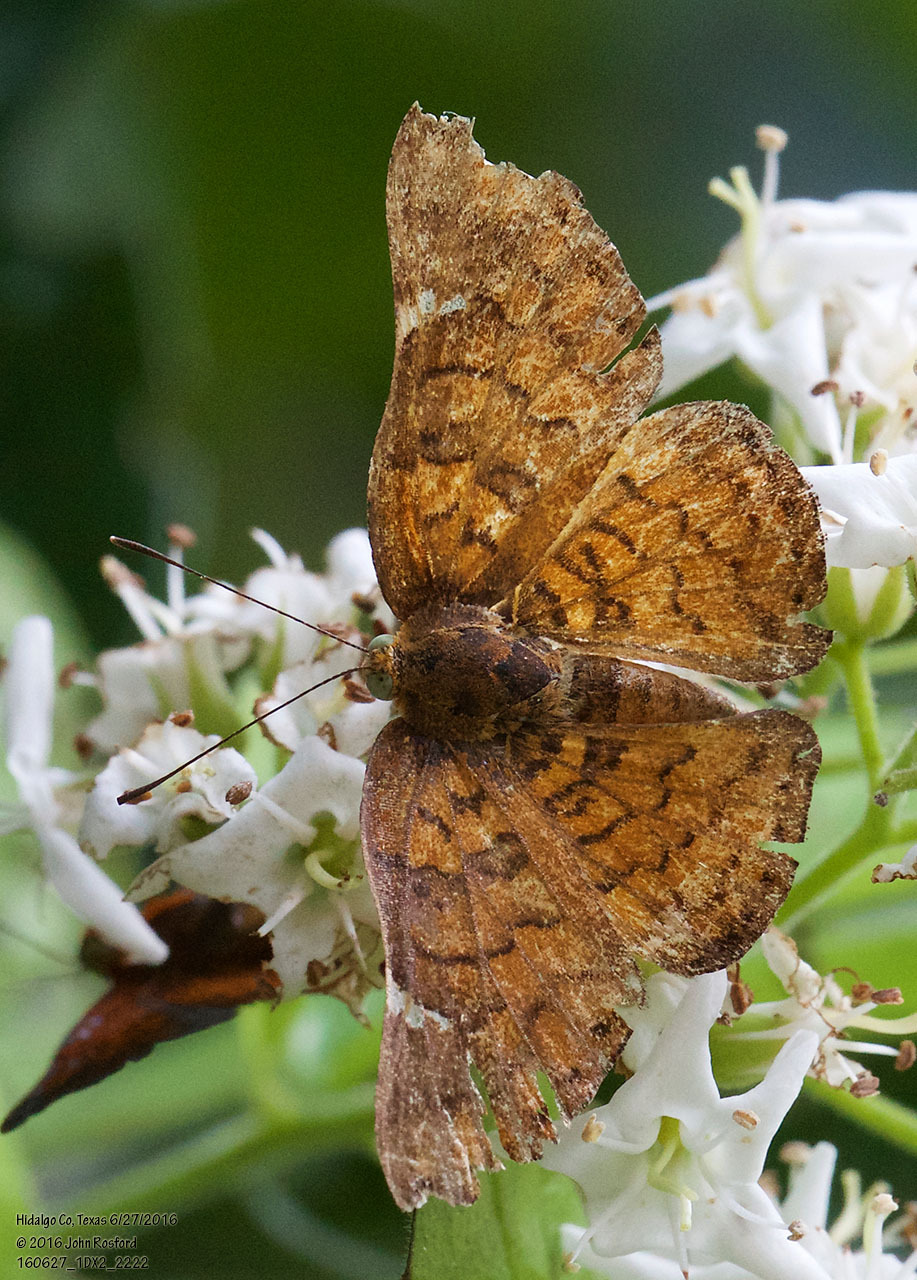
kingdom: Animalia
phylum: Arthropoda
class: Insecta
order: Lepidoptera
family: Riodinidae
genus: Curvie
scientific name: Curvie emesia
